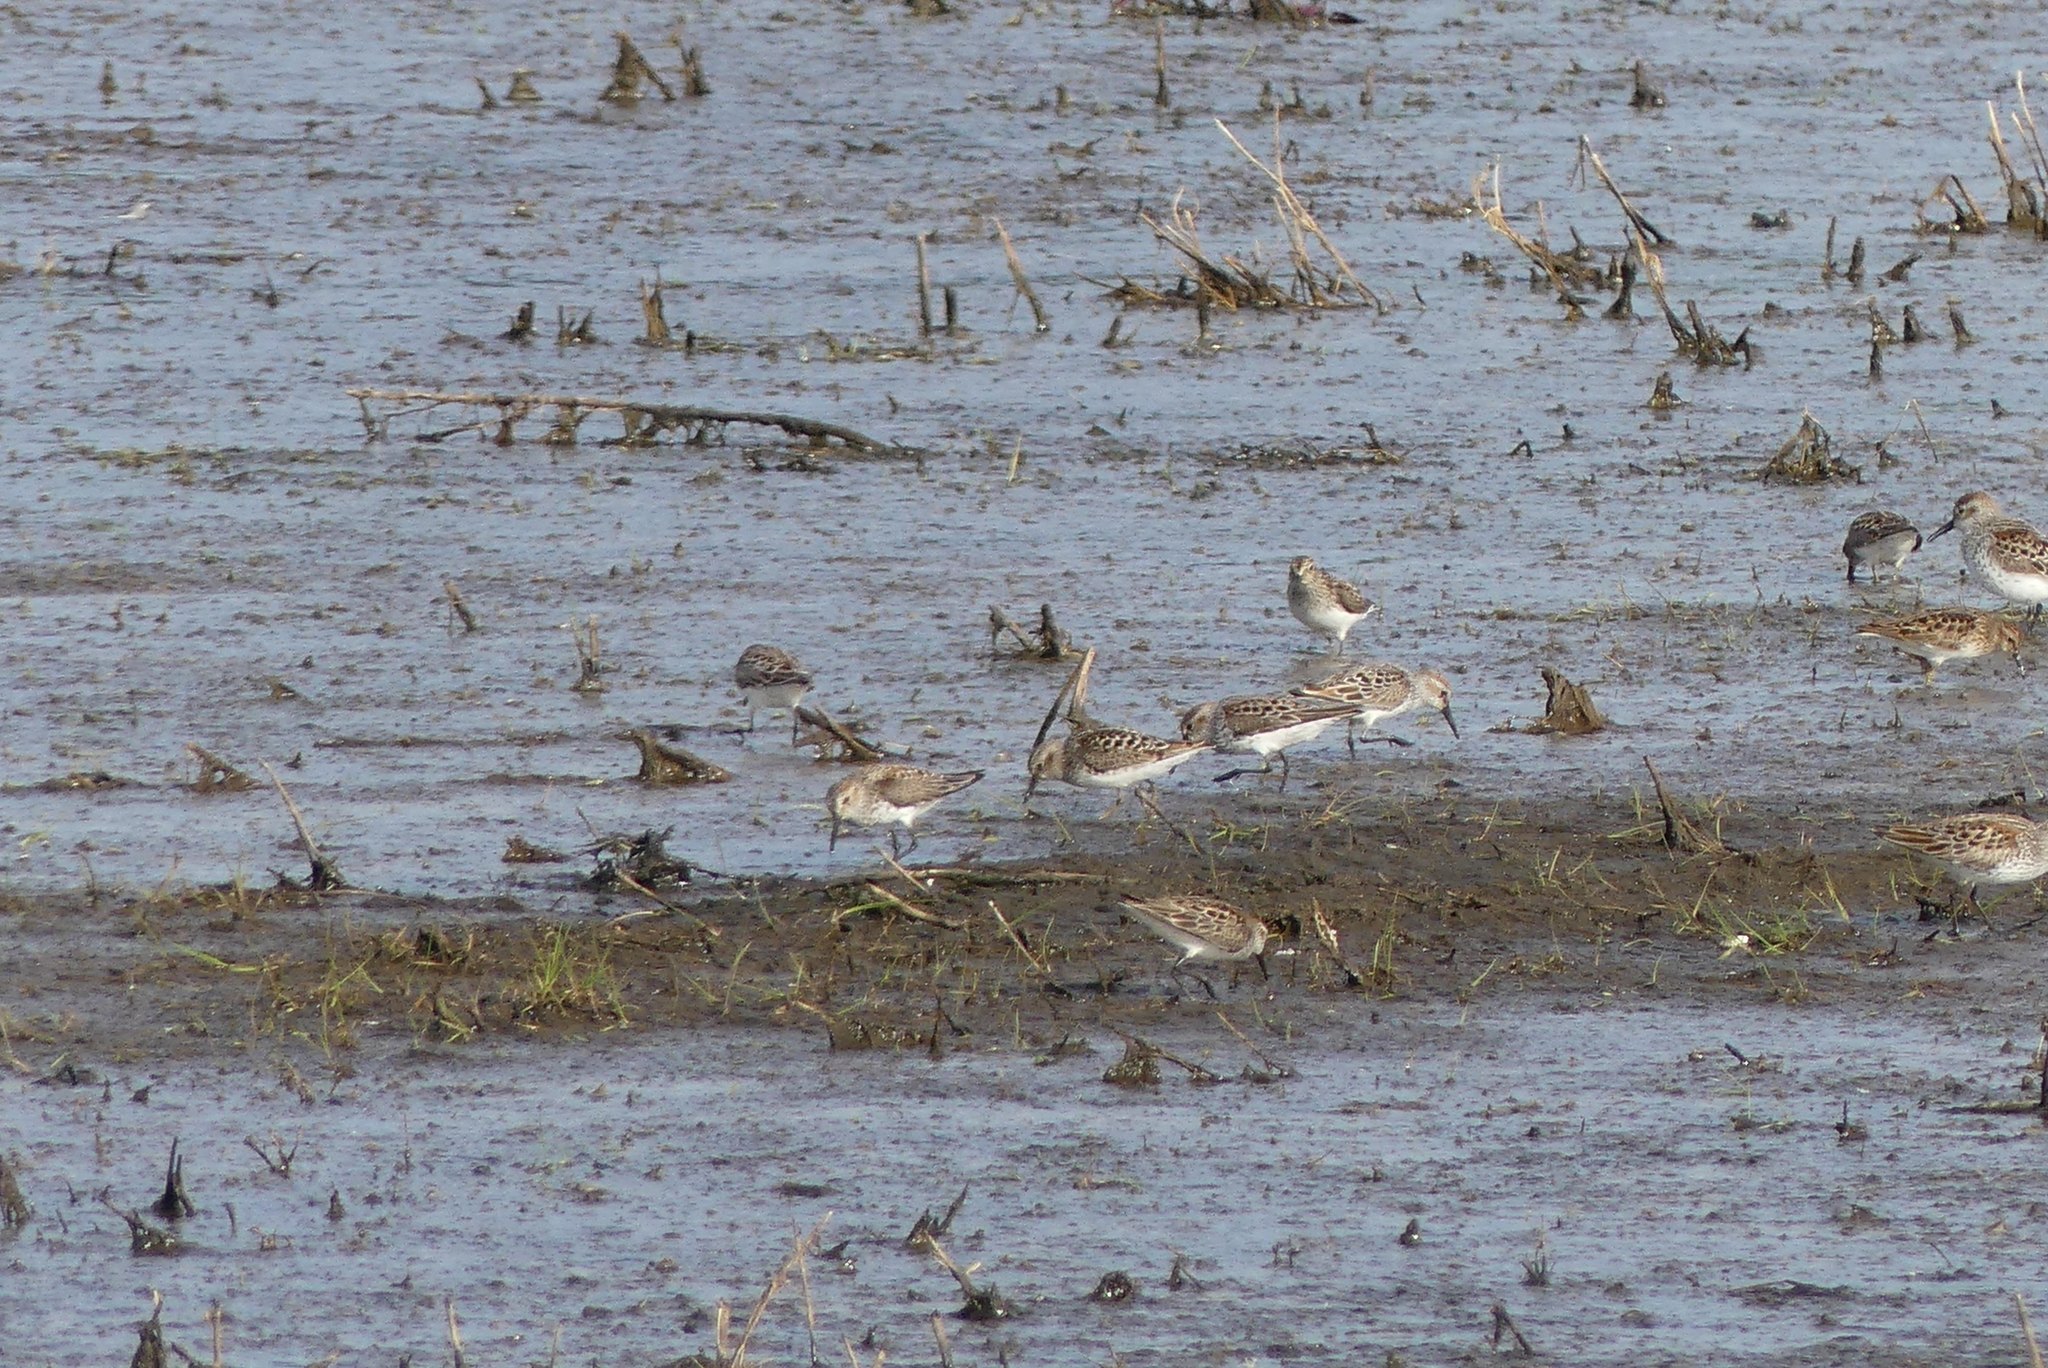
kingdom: Animalia
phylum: Chordata
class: Aves
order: Charadriiformes
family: Scolopacidae
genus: Calidris
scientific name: Calidris mauri
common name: Western sandpiper
